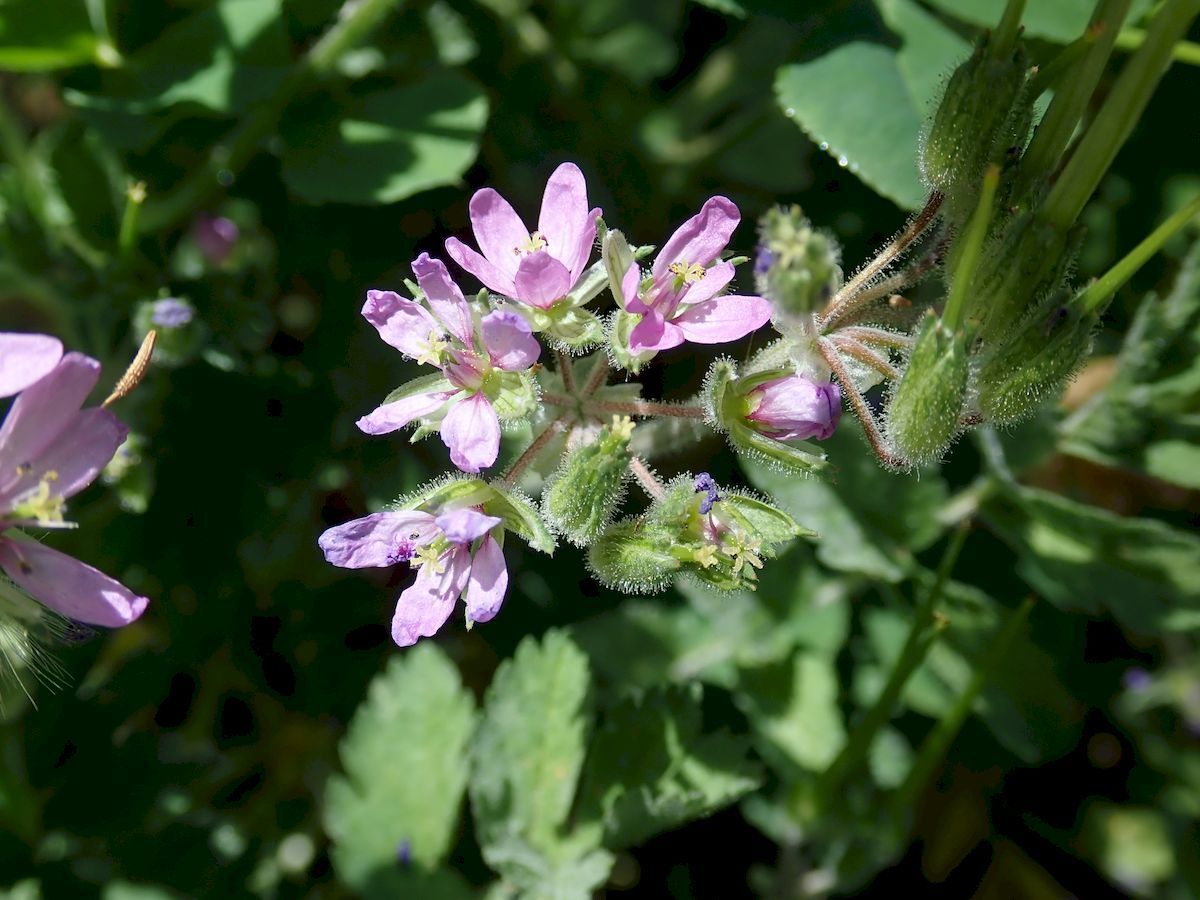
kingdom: Plantae
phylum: Tracheophyta
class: Magnoliopsida
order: Geraniales
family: Geraniaceae
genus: Erodium
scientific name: Erodium moschatum
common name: Musk stork's-bill
